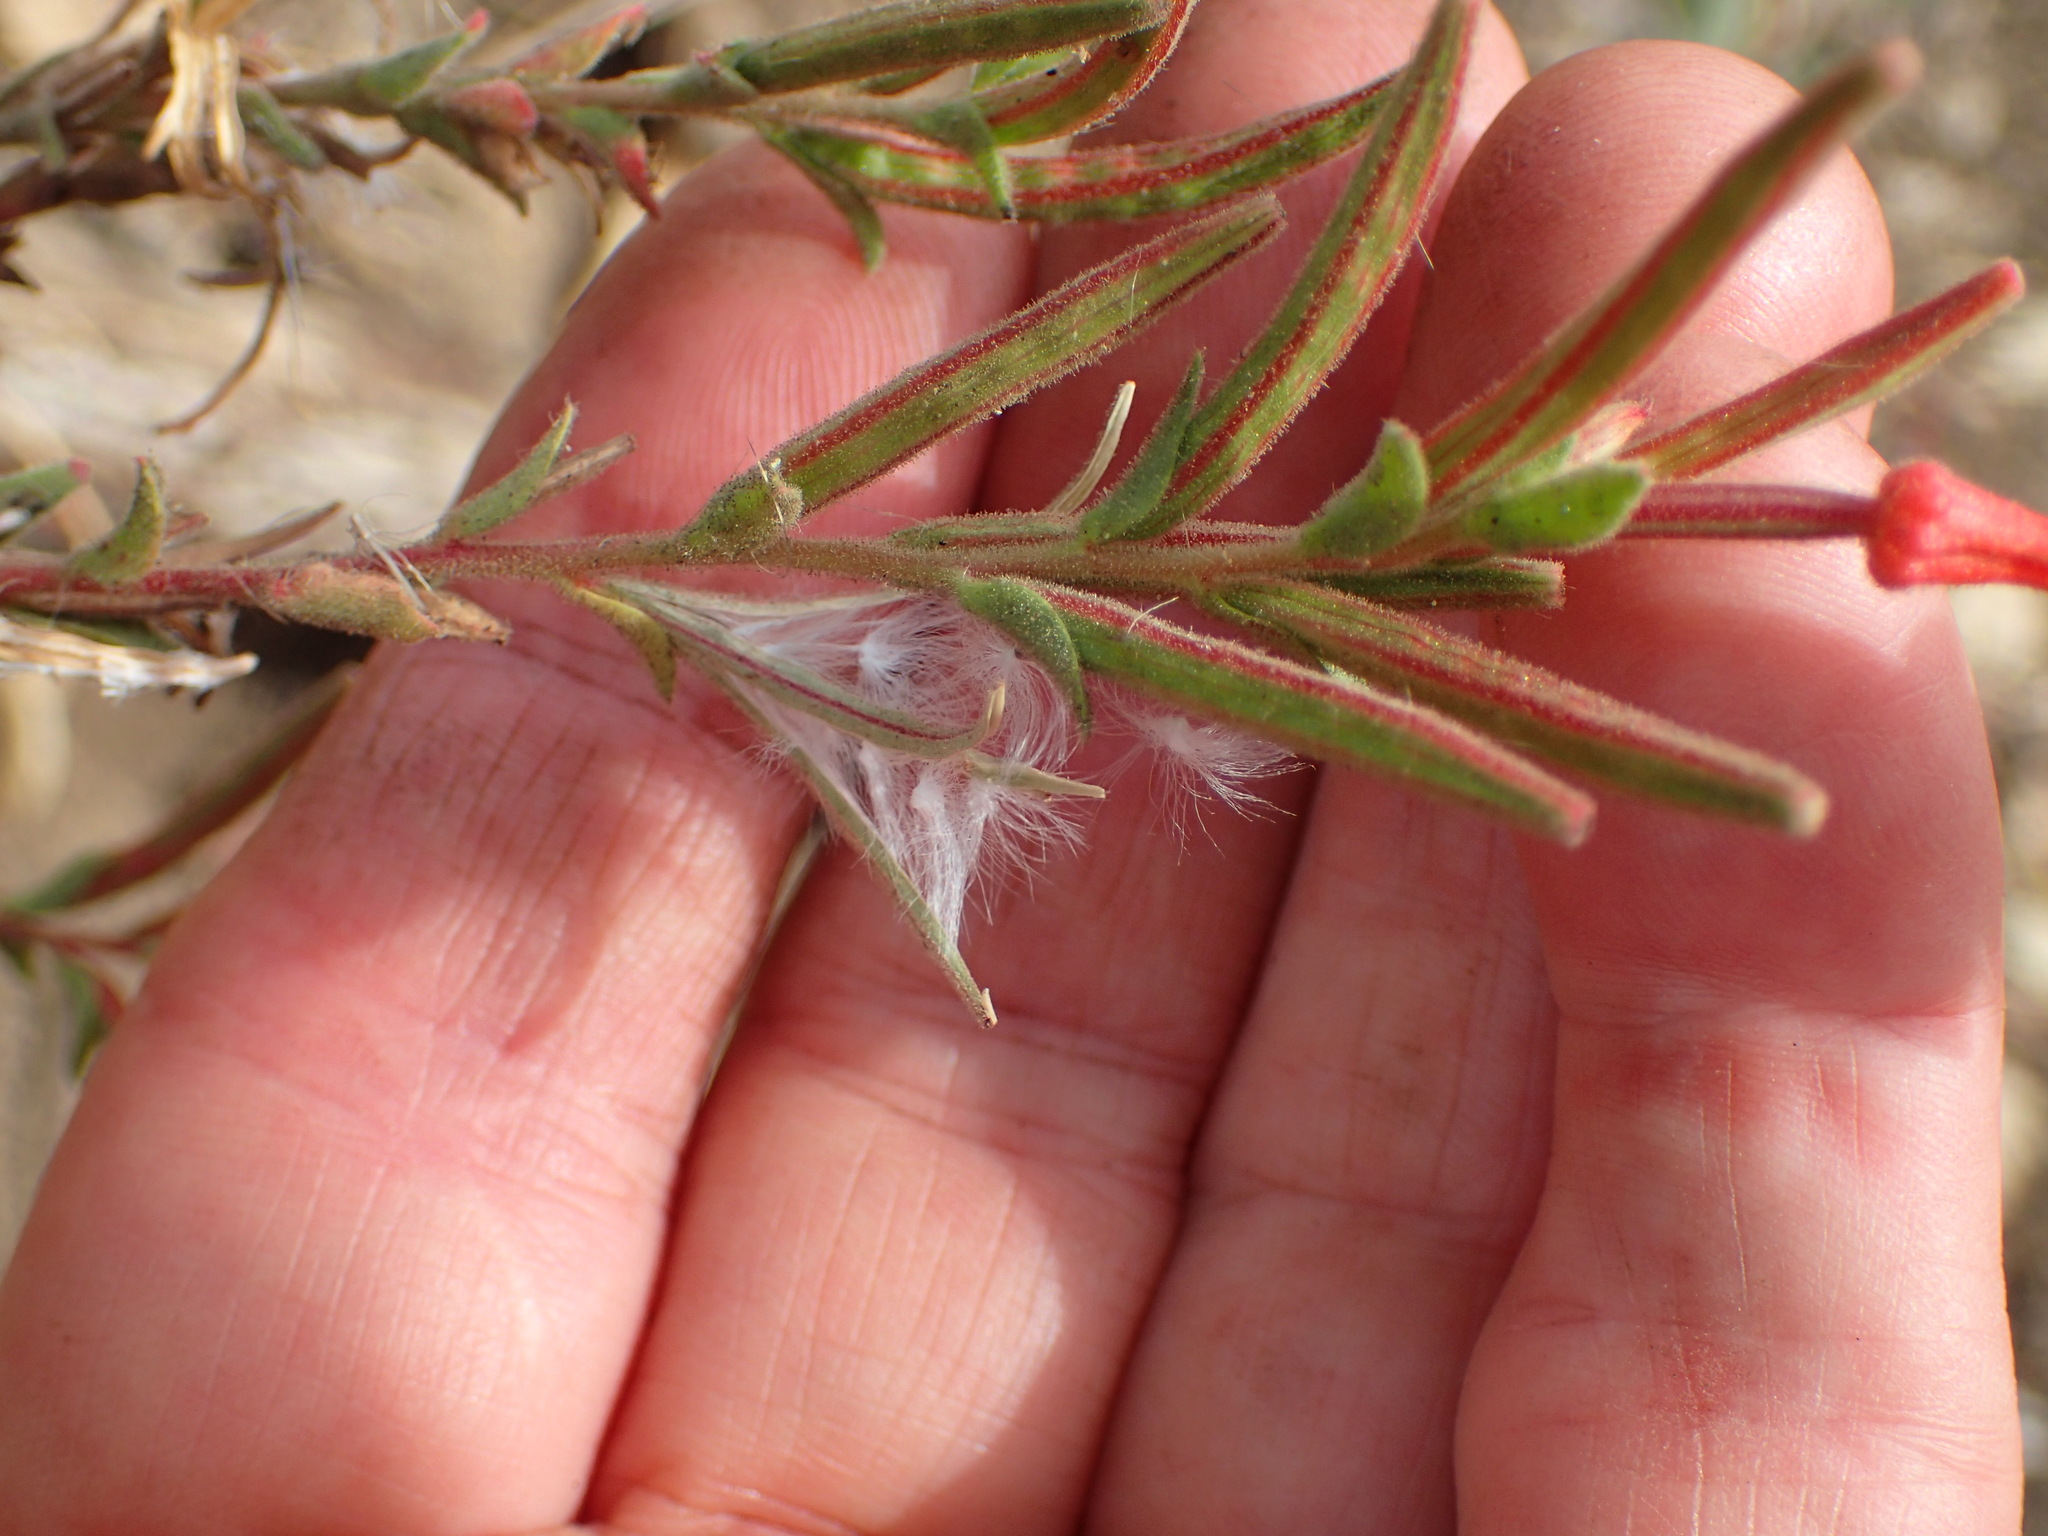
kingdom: Plantae
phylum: Tracheophyta
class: Magnoliopsida
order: Myrtales
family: Onagraceae
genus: Epilobium
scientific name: Epilobium canum
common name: California-fuchsia
